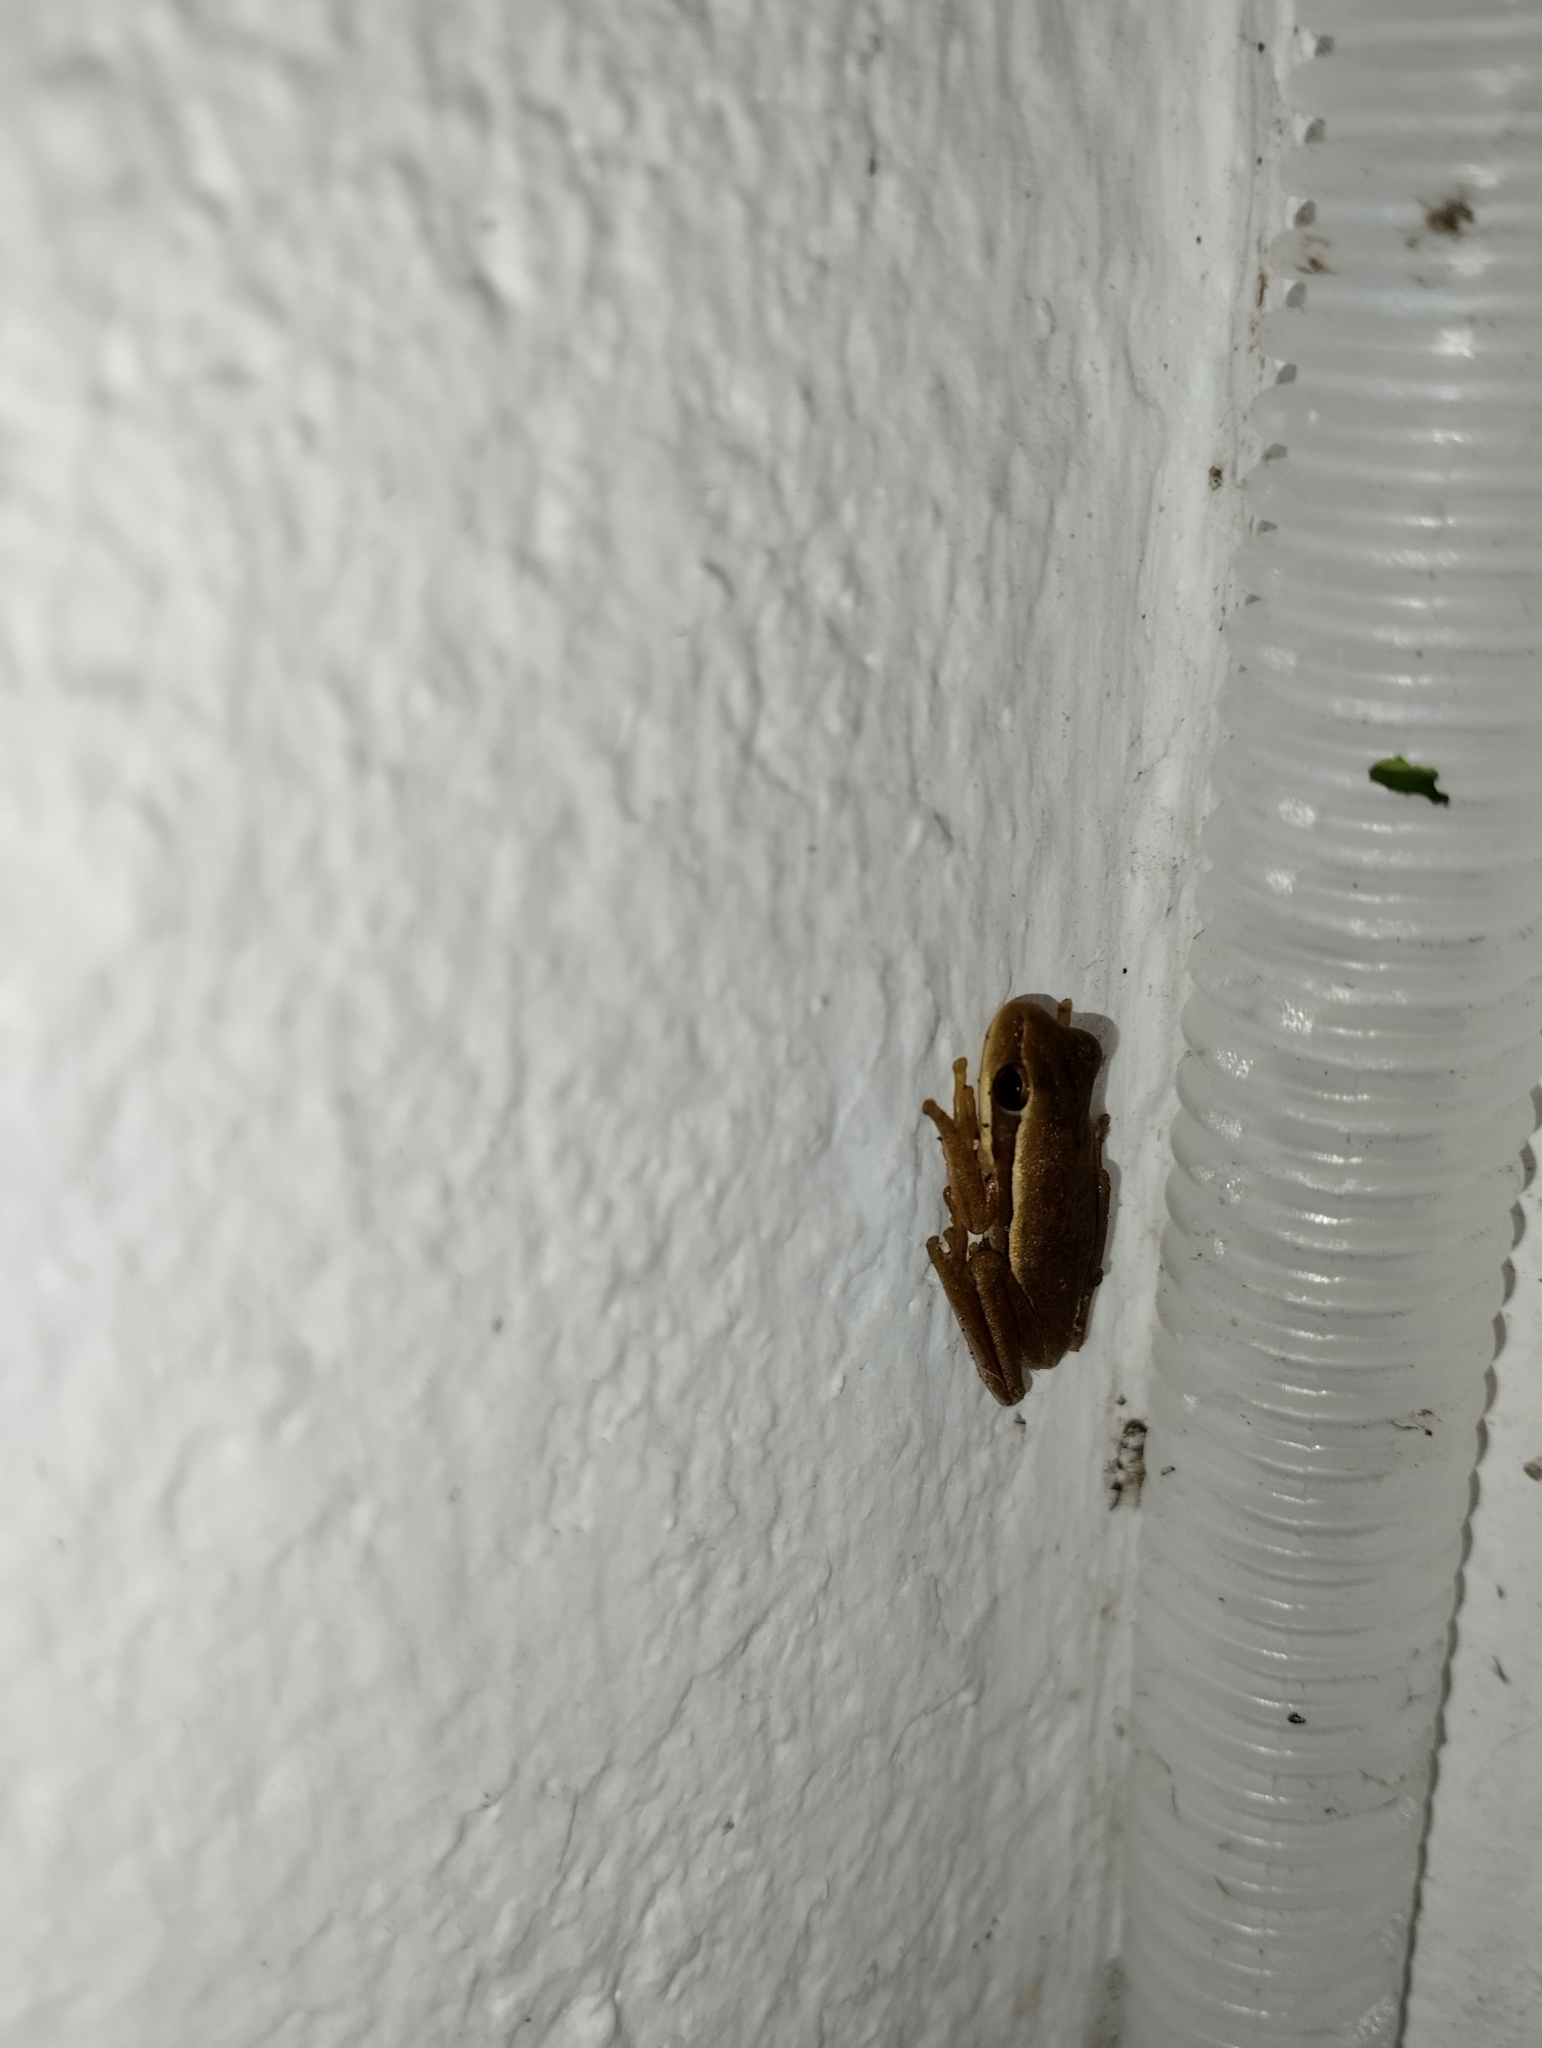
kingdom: Animalia
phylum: Chordata
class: Amphibia
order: Anura
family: Hylidae
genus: Boana
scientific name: Boana pulchella
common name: Montevideo treefrog
